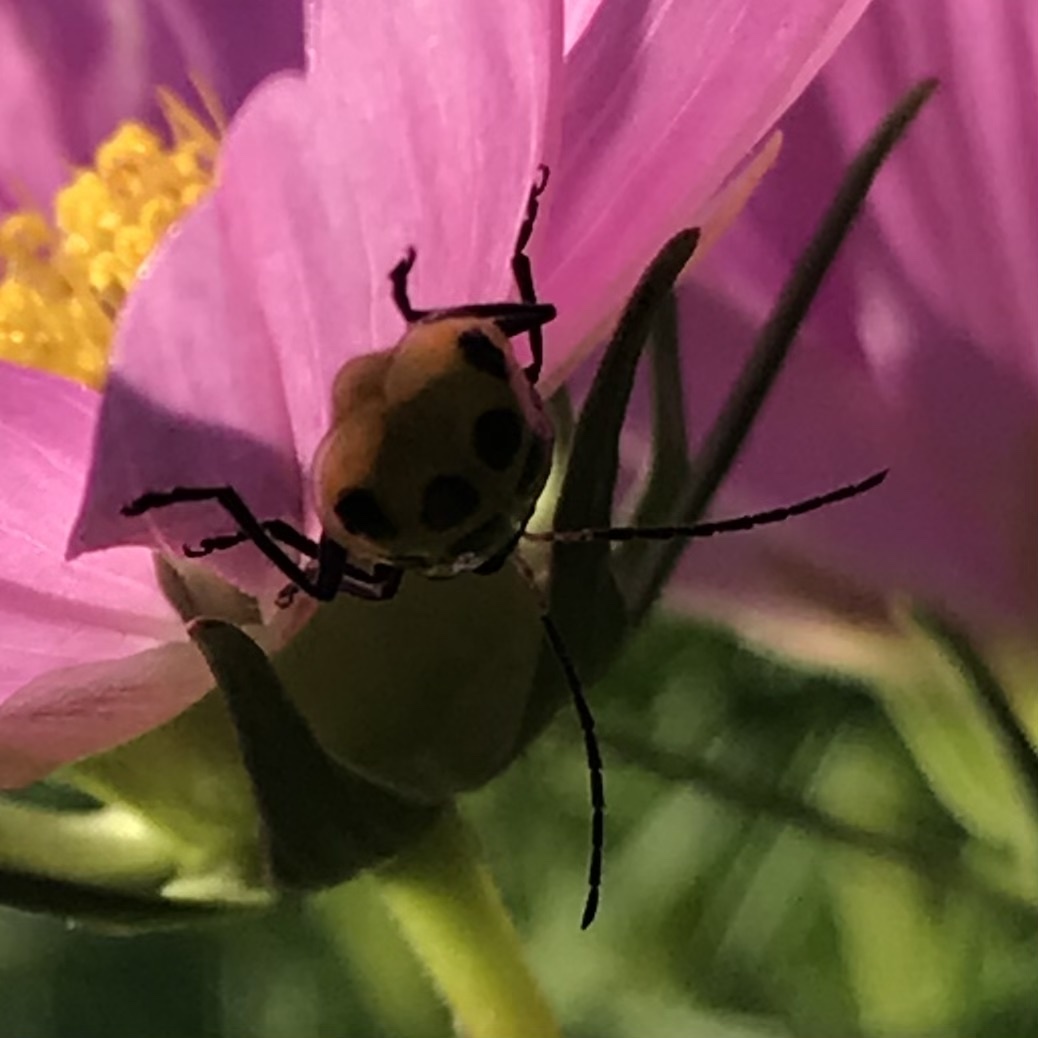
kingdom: Animalia
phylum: Arthropoda
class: Insecta
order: Coleoptera
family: Chrysomelidae
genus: Diabrotica
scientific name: Diabrotica undecimpunctata
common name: Spotted cucumber beetle
